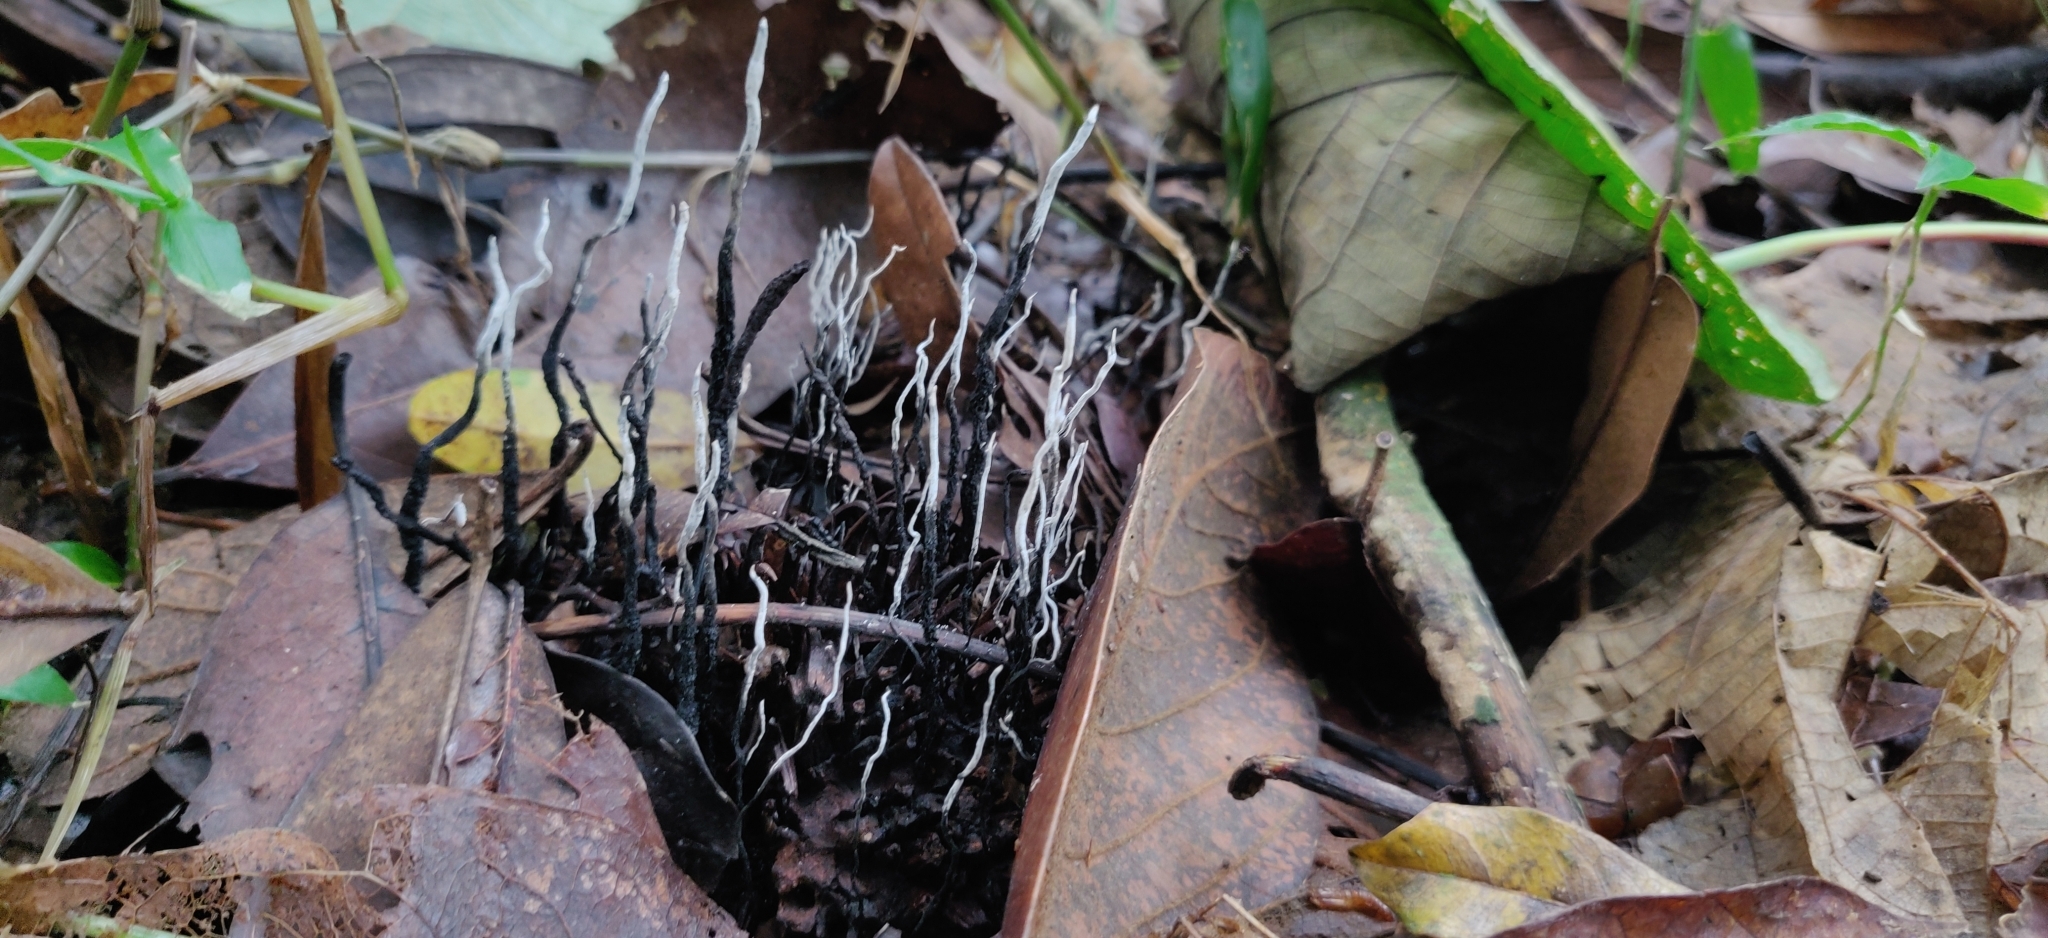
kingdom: Fungi
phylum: Ascomycota
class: Sordariomycetes
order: Xylariales
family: Xylariaceae
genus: Xylaria
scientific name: Xylaria culleniae
